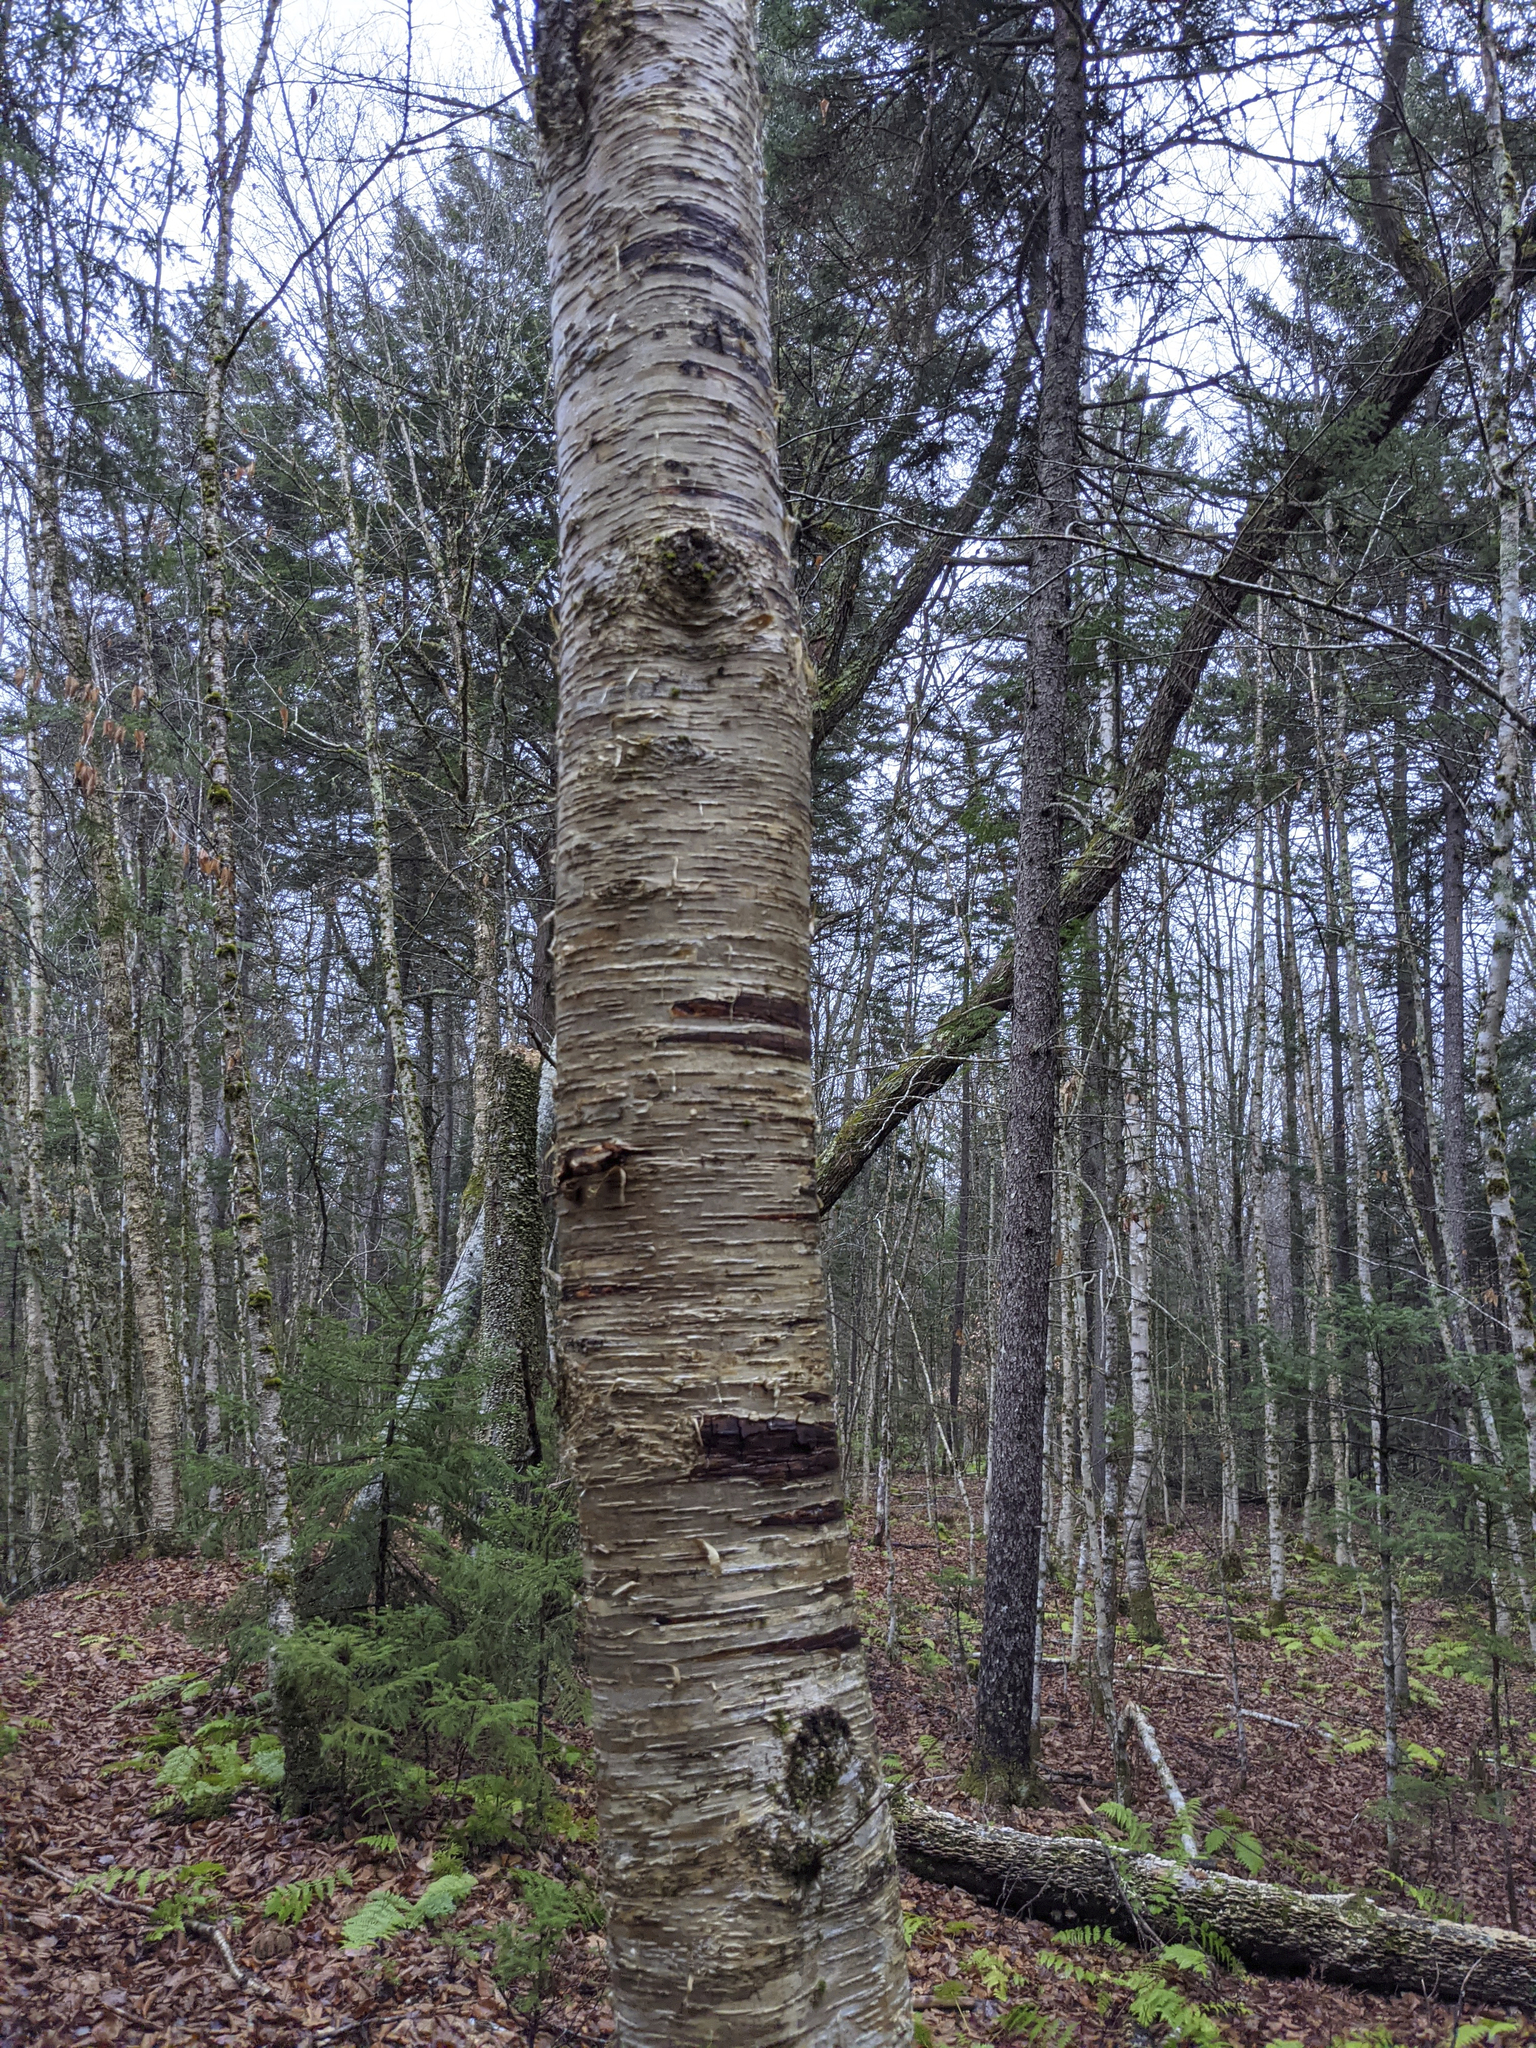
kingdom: Plantae
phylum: Tracheophyta
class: Magnoliopsida
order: Fagales
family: Betulaceae
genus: Betula
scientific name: Betula alleghaniensis
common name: Yellow birch
